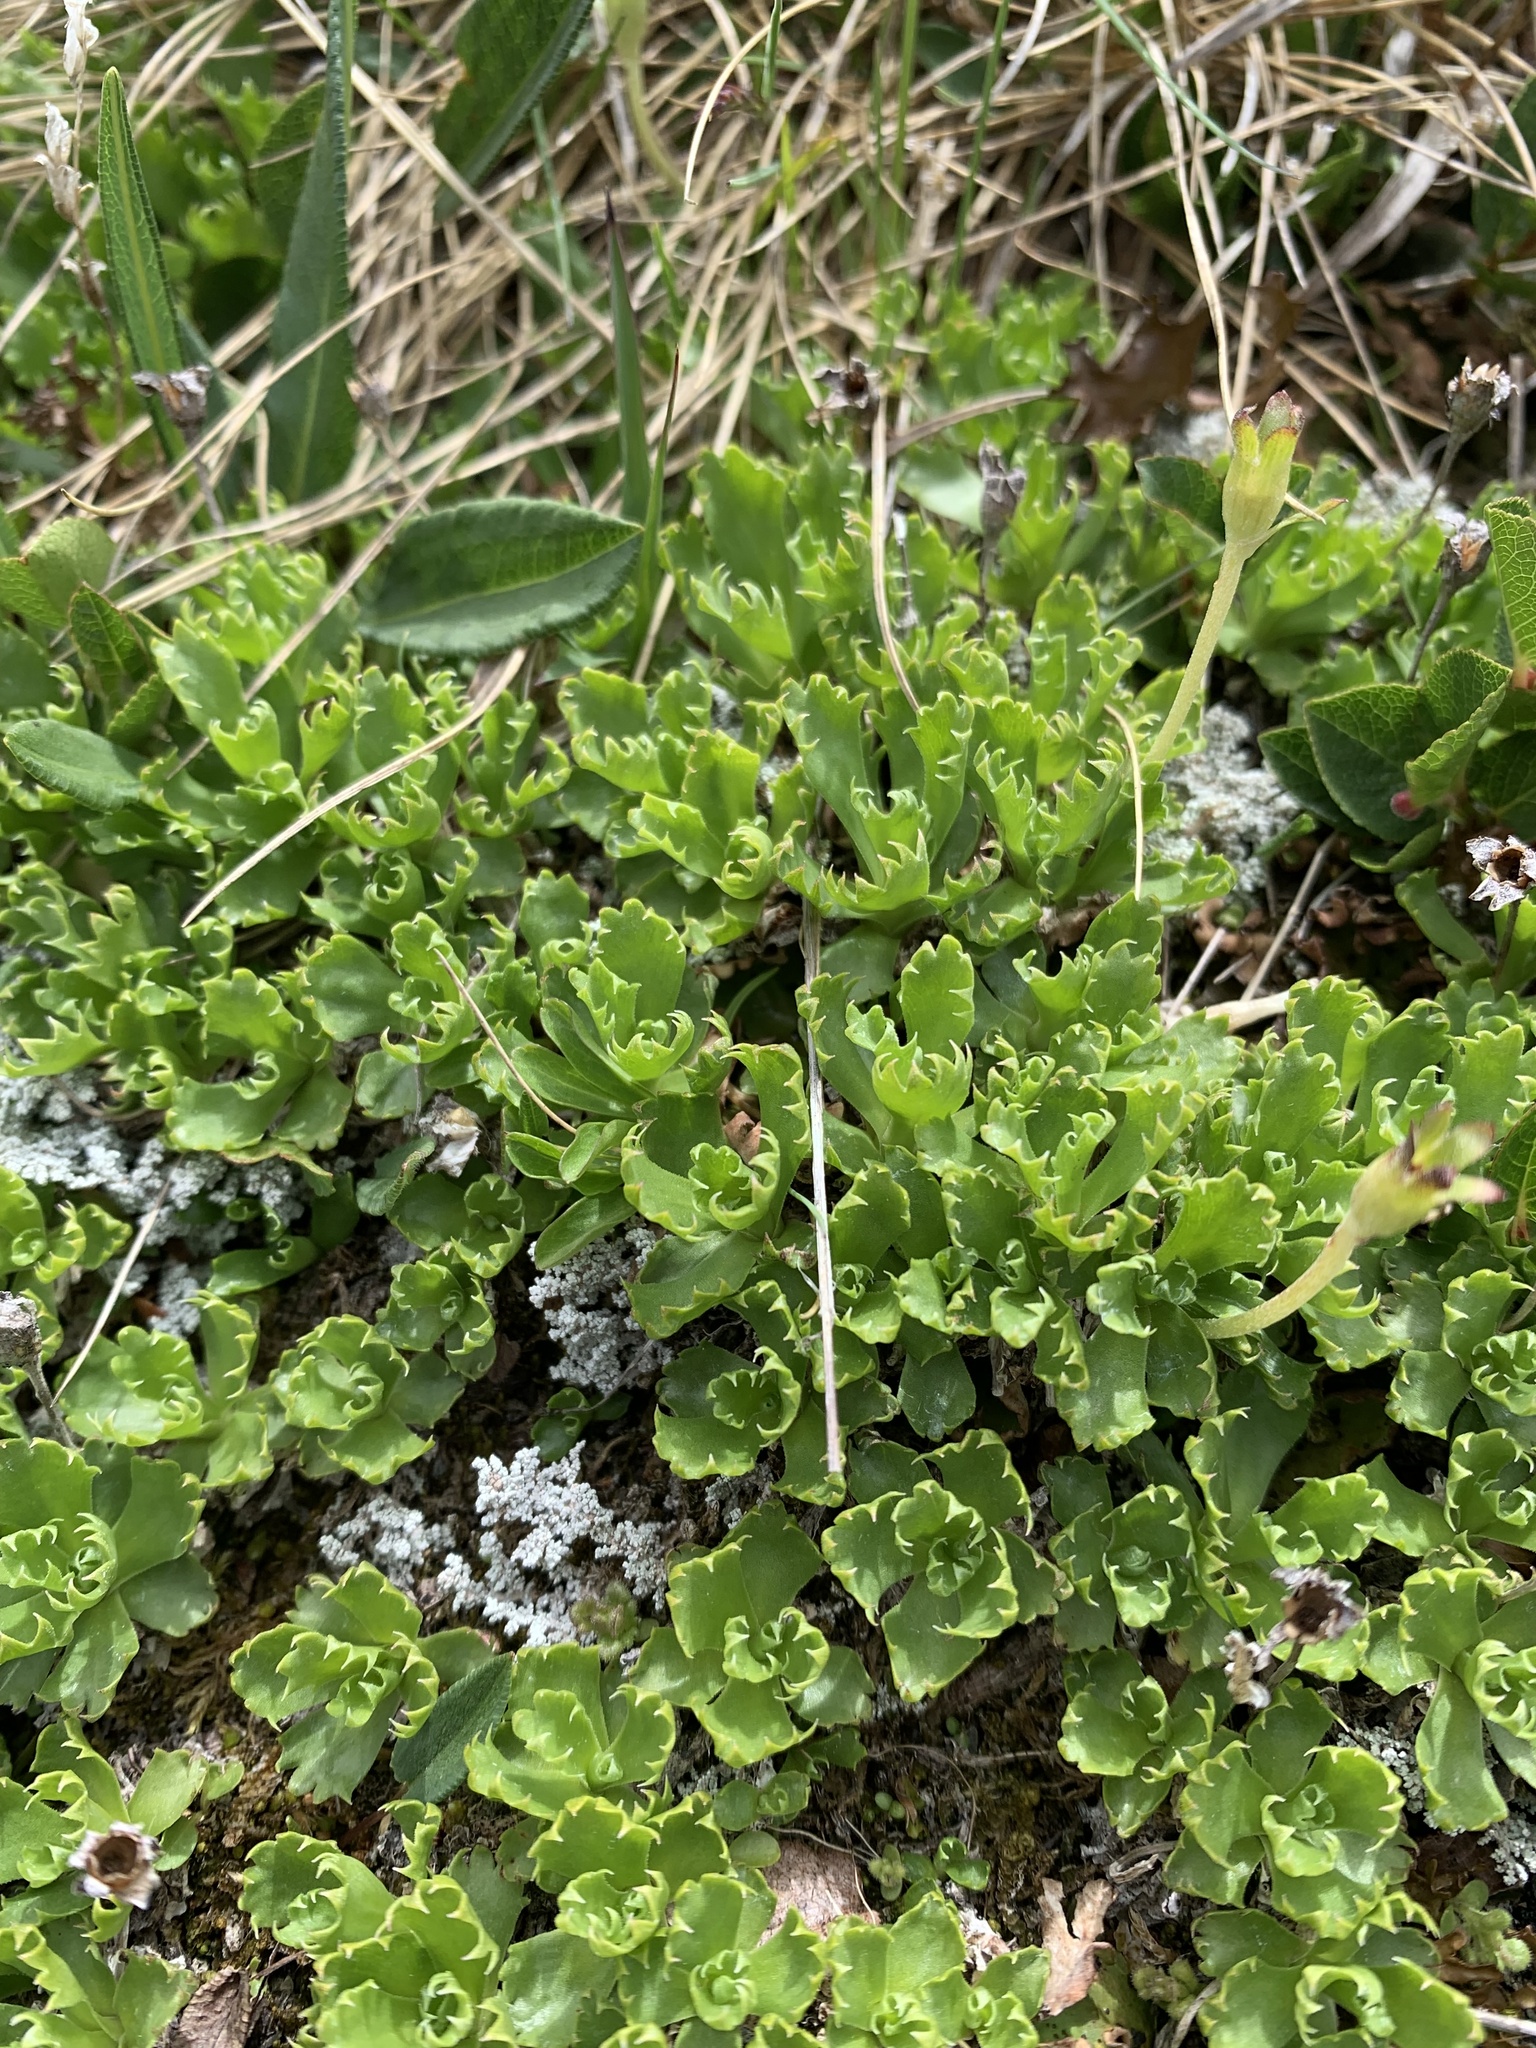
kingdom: Plantae
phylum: Tracheophyta
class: Magnoliopsida
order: Ericales
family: Primulaceae
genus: Primula
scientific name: Primula minima
